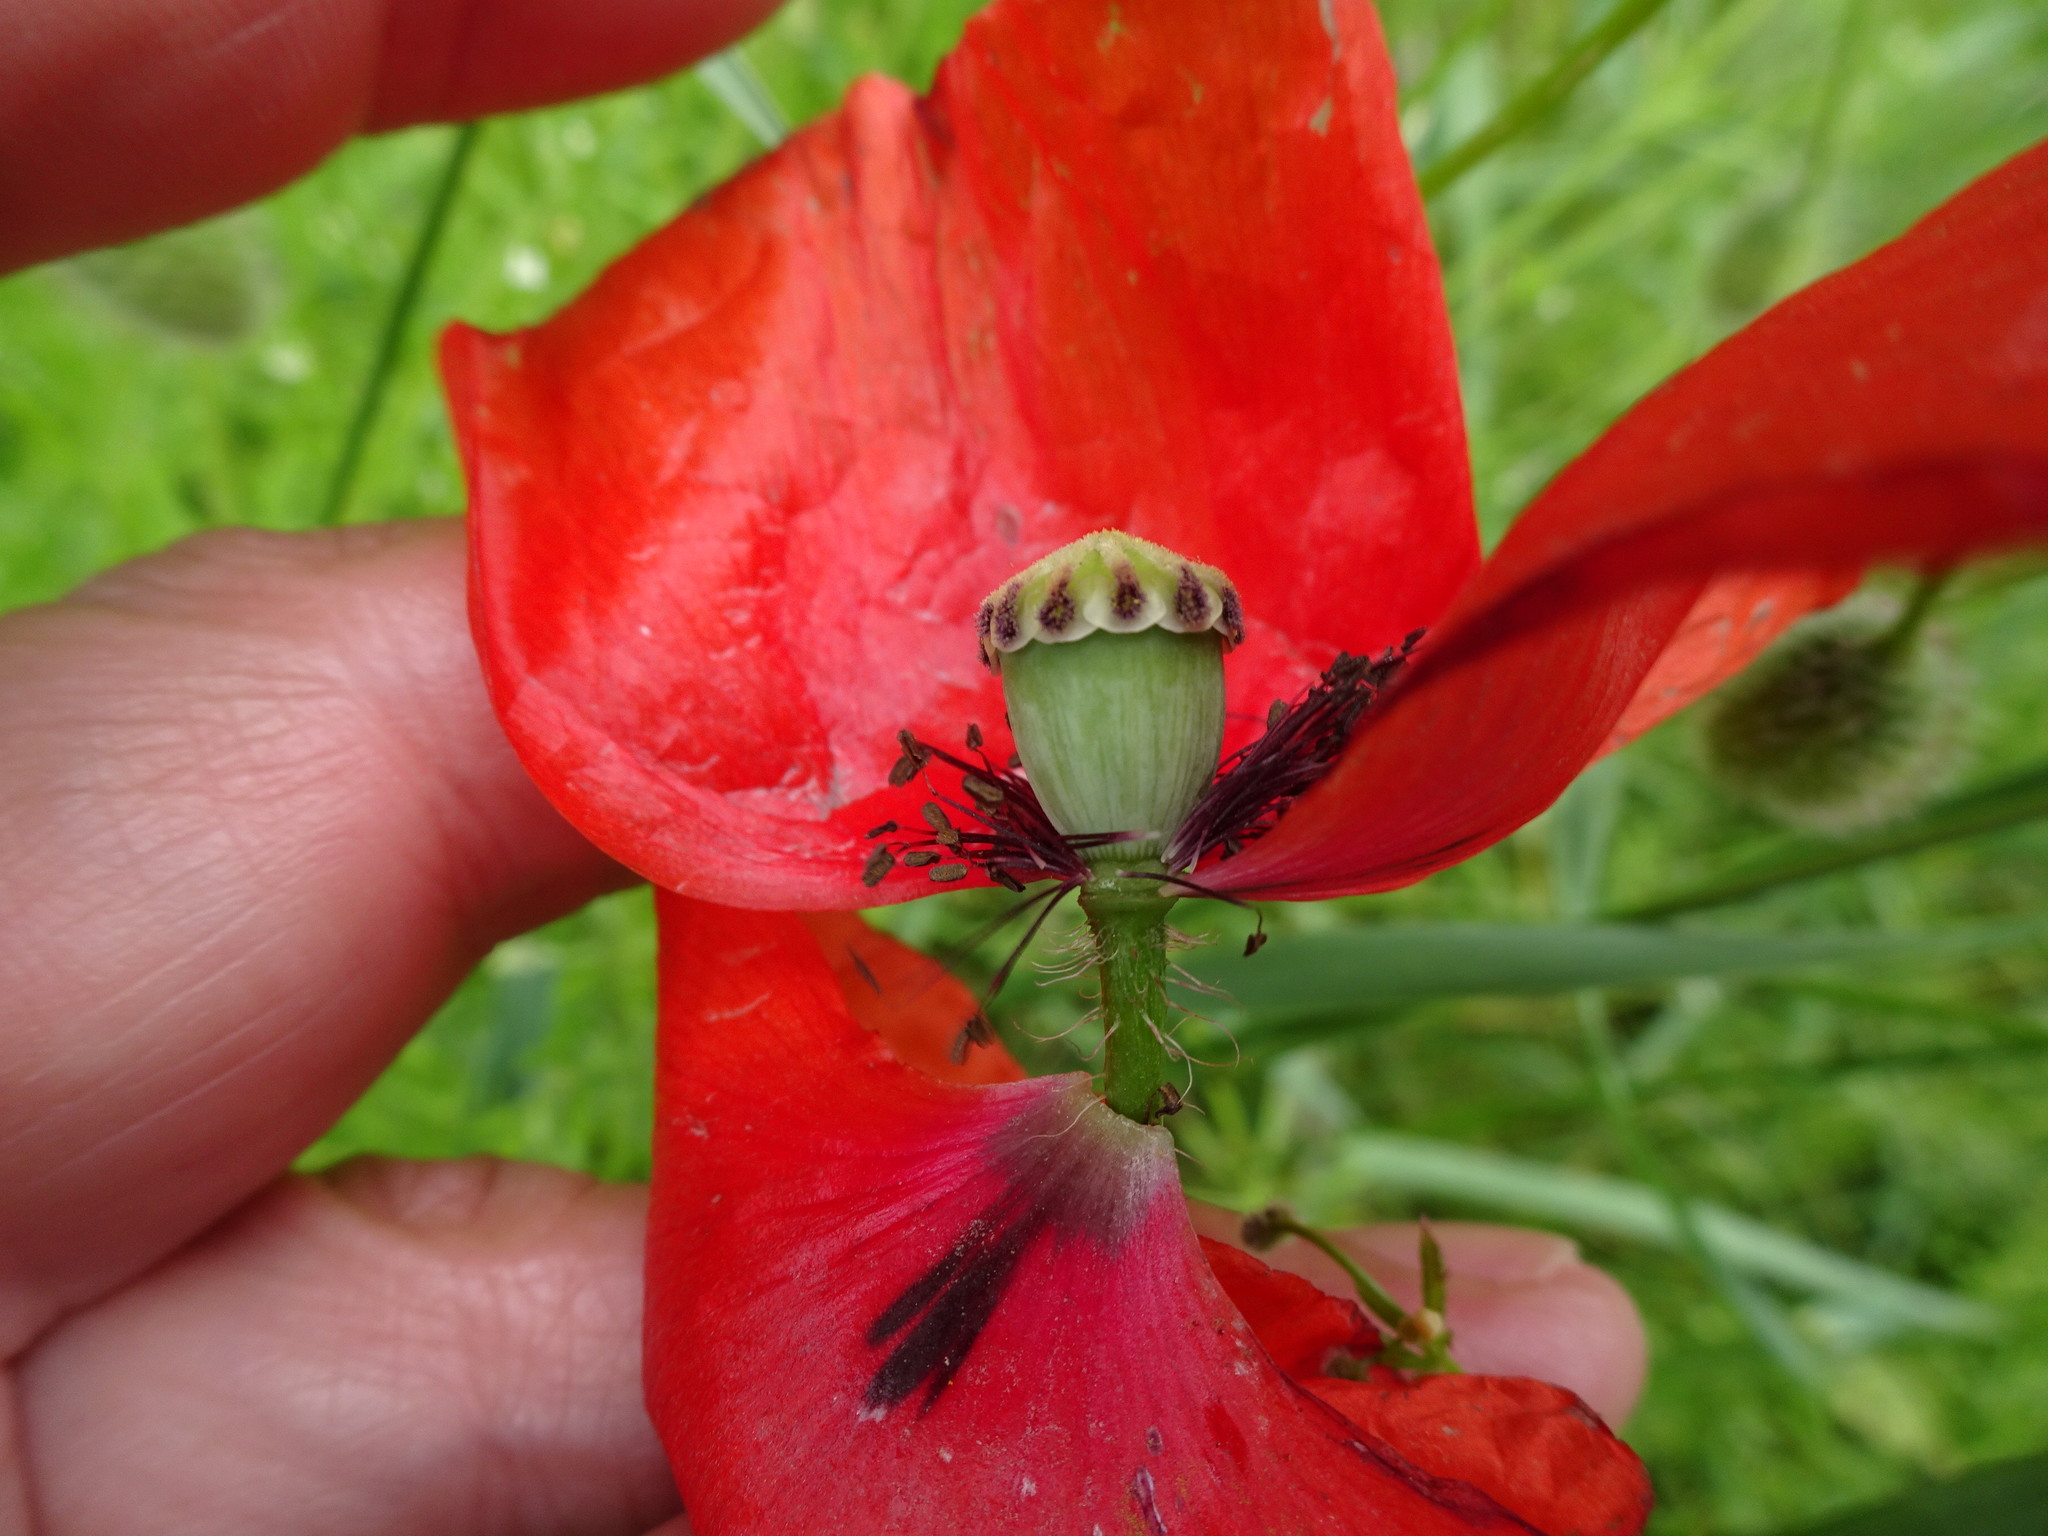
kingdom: Plantae
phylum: Tracheophyta
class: Magnoliopsida
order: Ranunculales
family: Papaveraceae
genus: Papaver
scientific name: Papaver rhoeas
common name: Corn poppy
